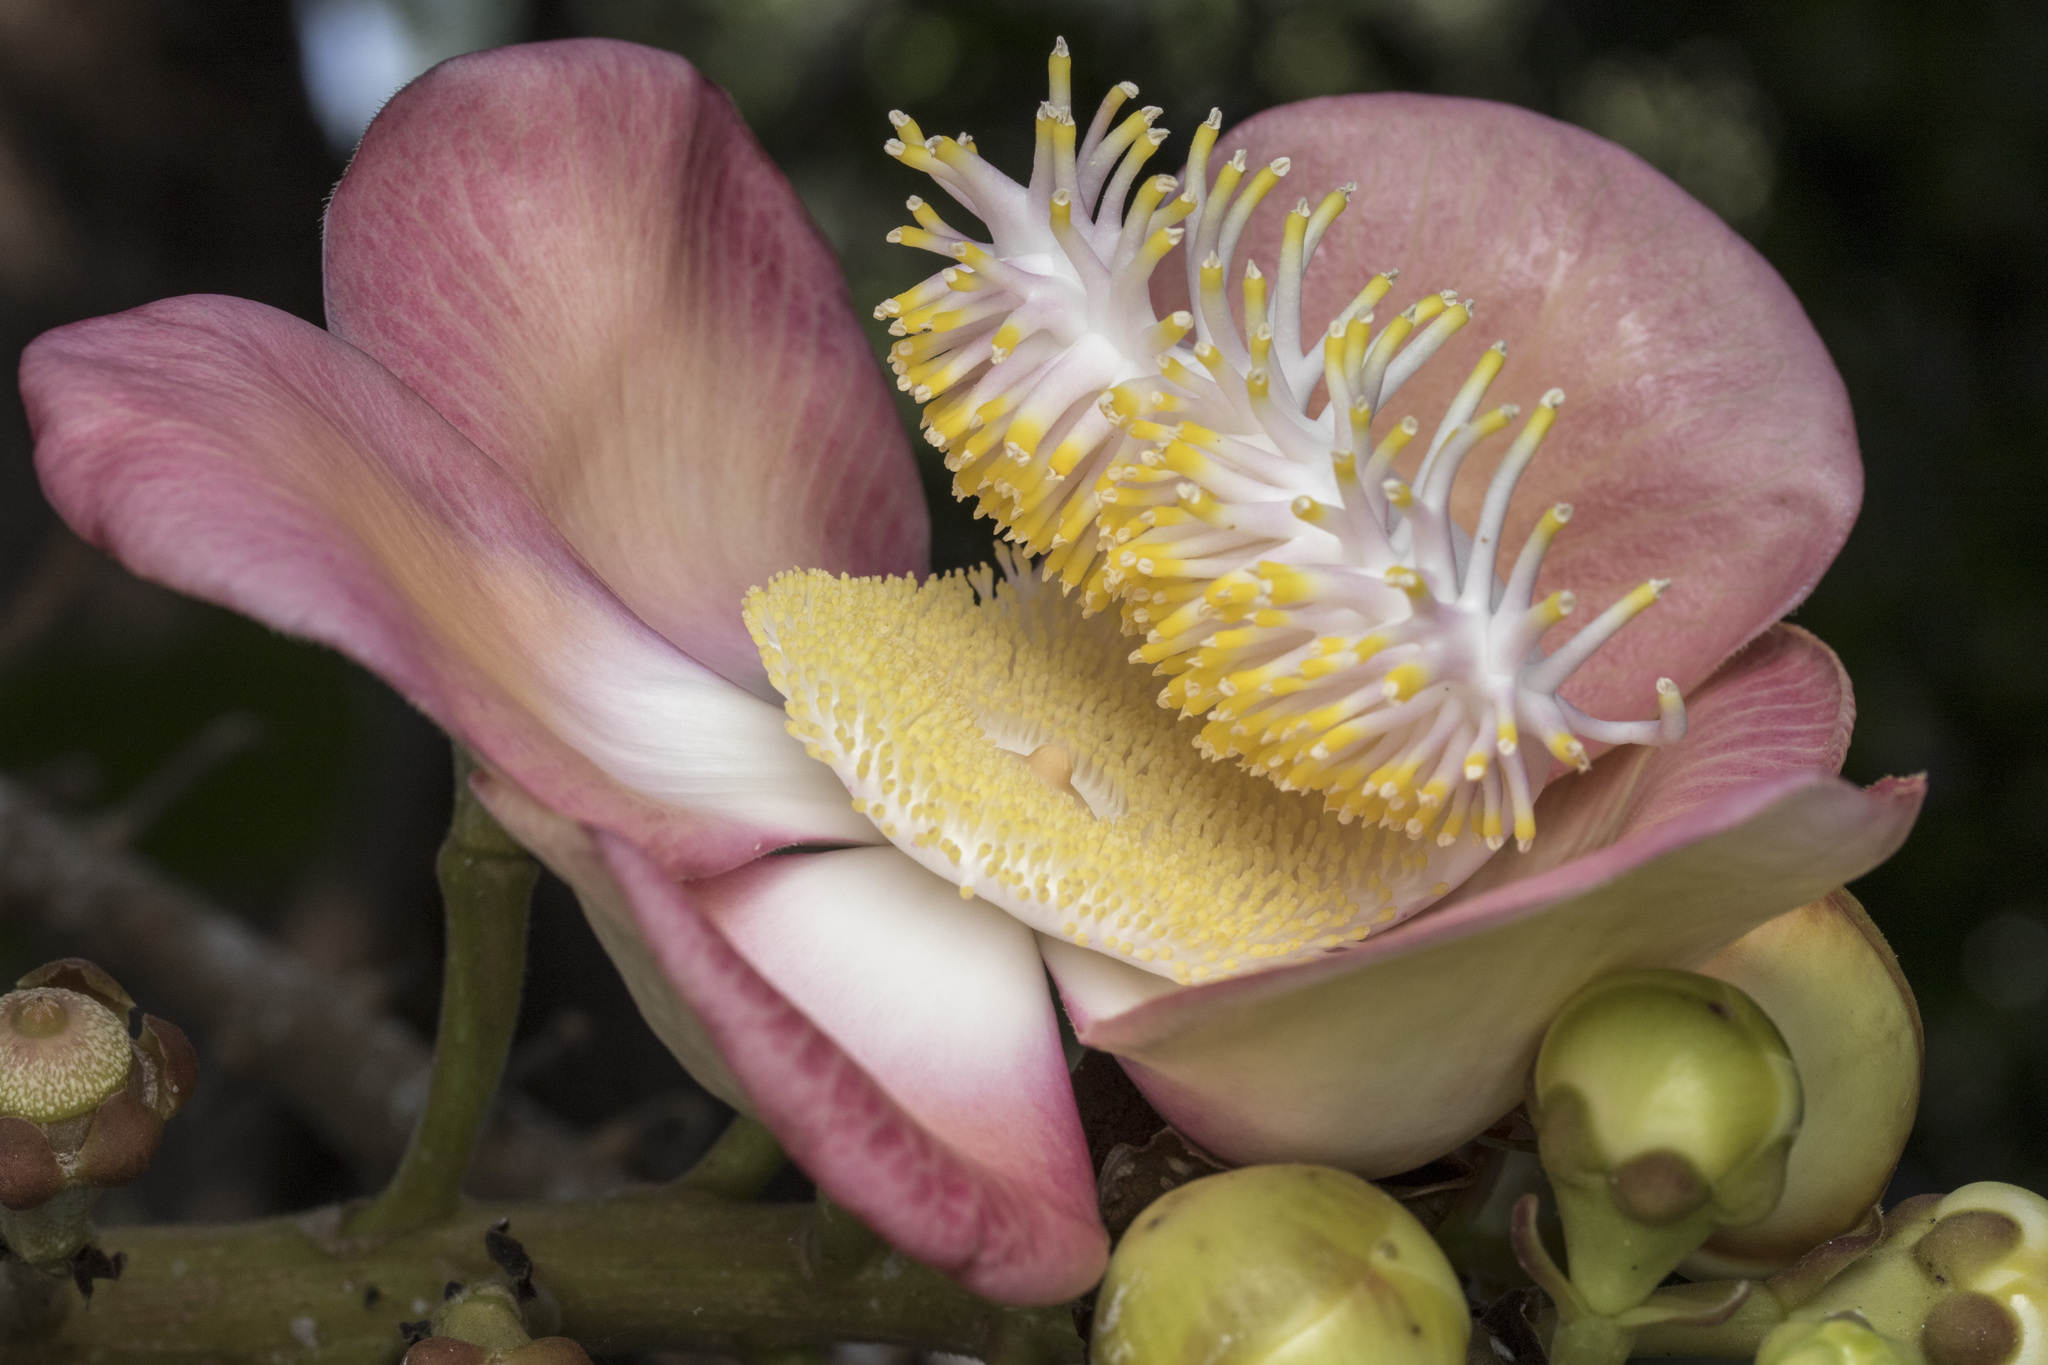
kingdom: Plantae
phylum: Tracheophyta
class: Magnoliopsida
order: Ericales
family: Lecythidaceae
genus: Couroupita
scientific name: Couroupita guianensis
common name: Cannonball tree
